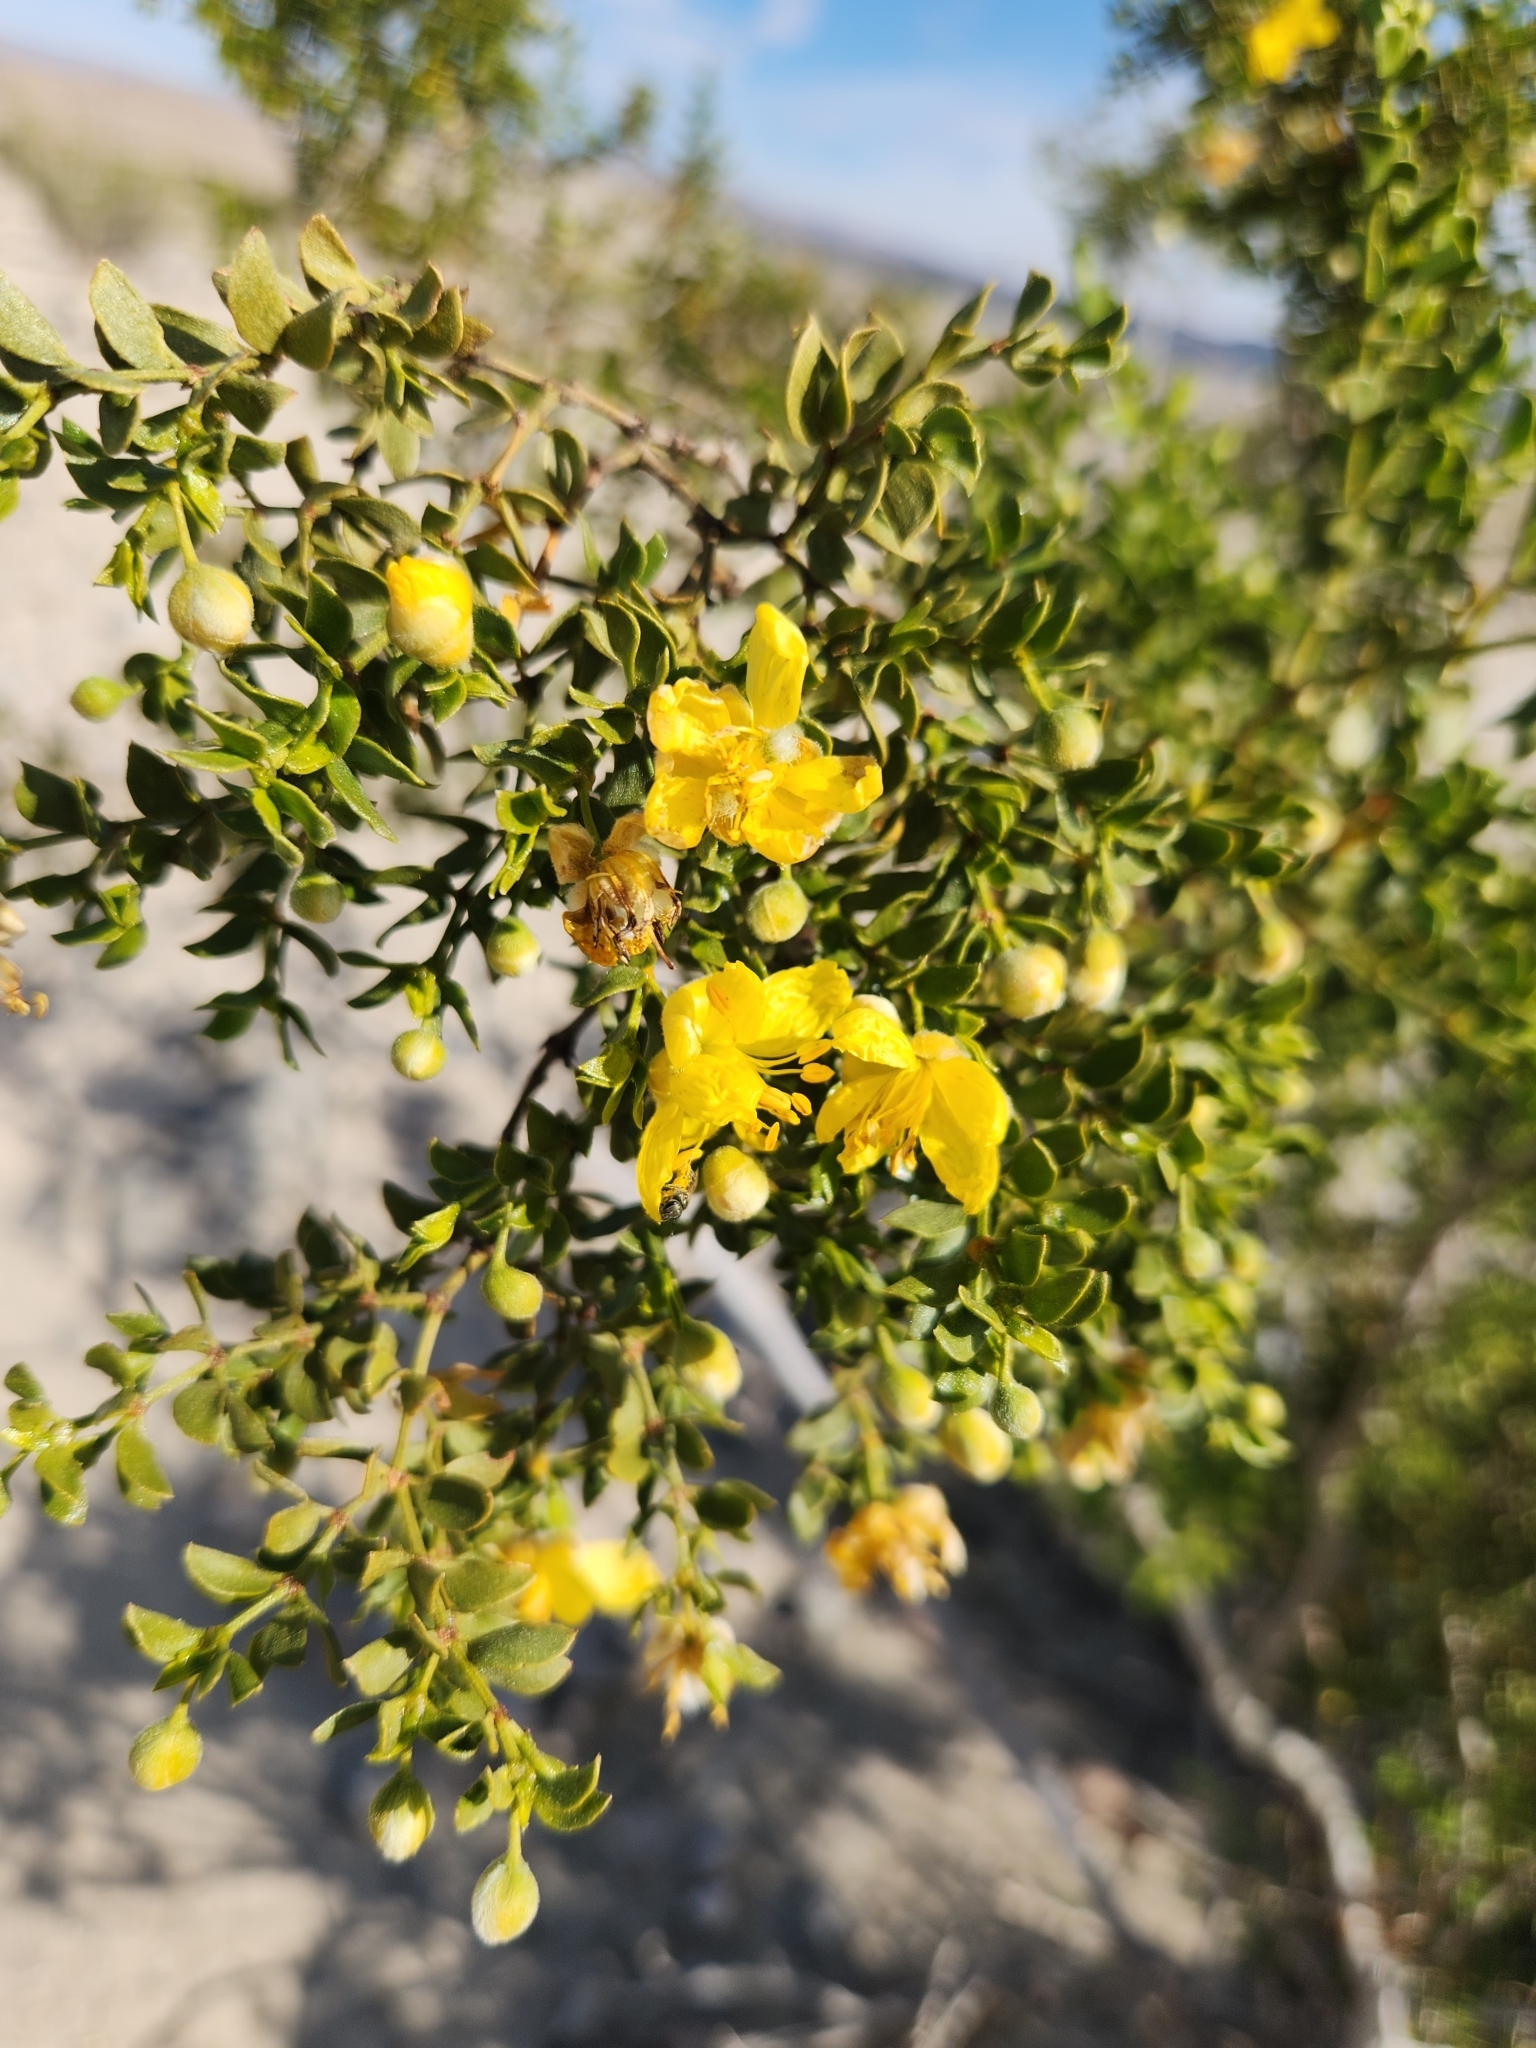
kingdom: Plantae
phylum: Tracheophyta
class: Magnoliopsida
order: Zygophyllales
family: Zygophyllaceae
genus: Larrea
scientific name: Larrea tridentata
